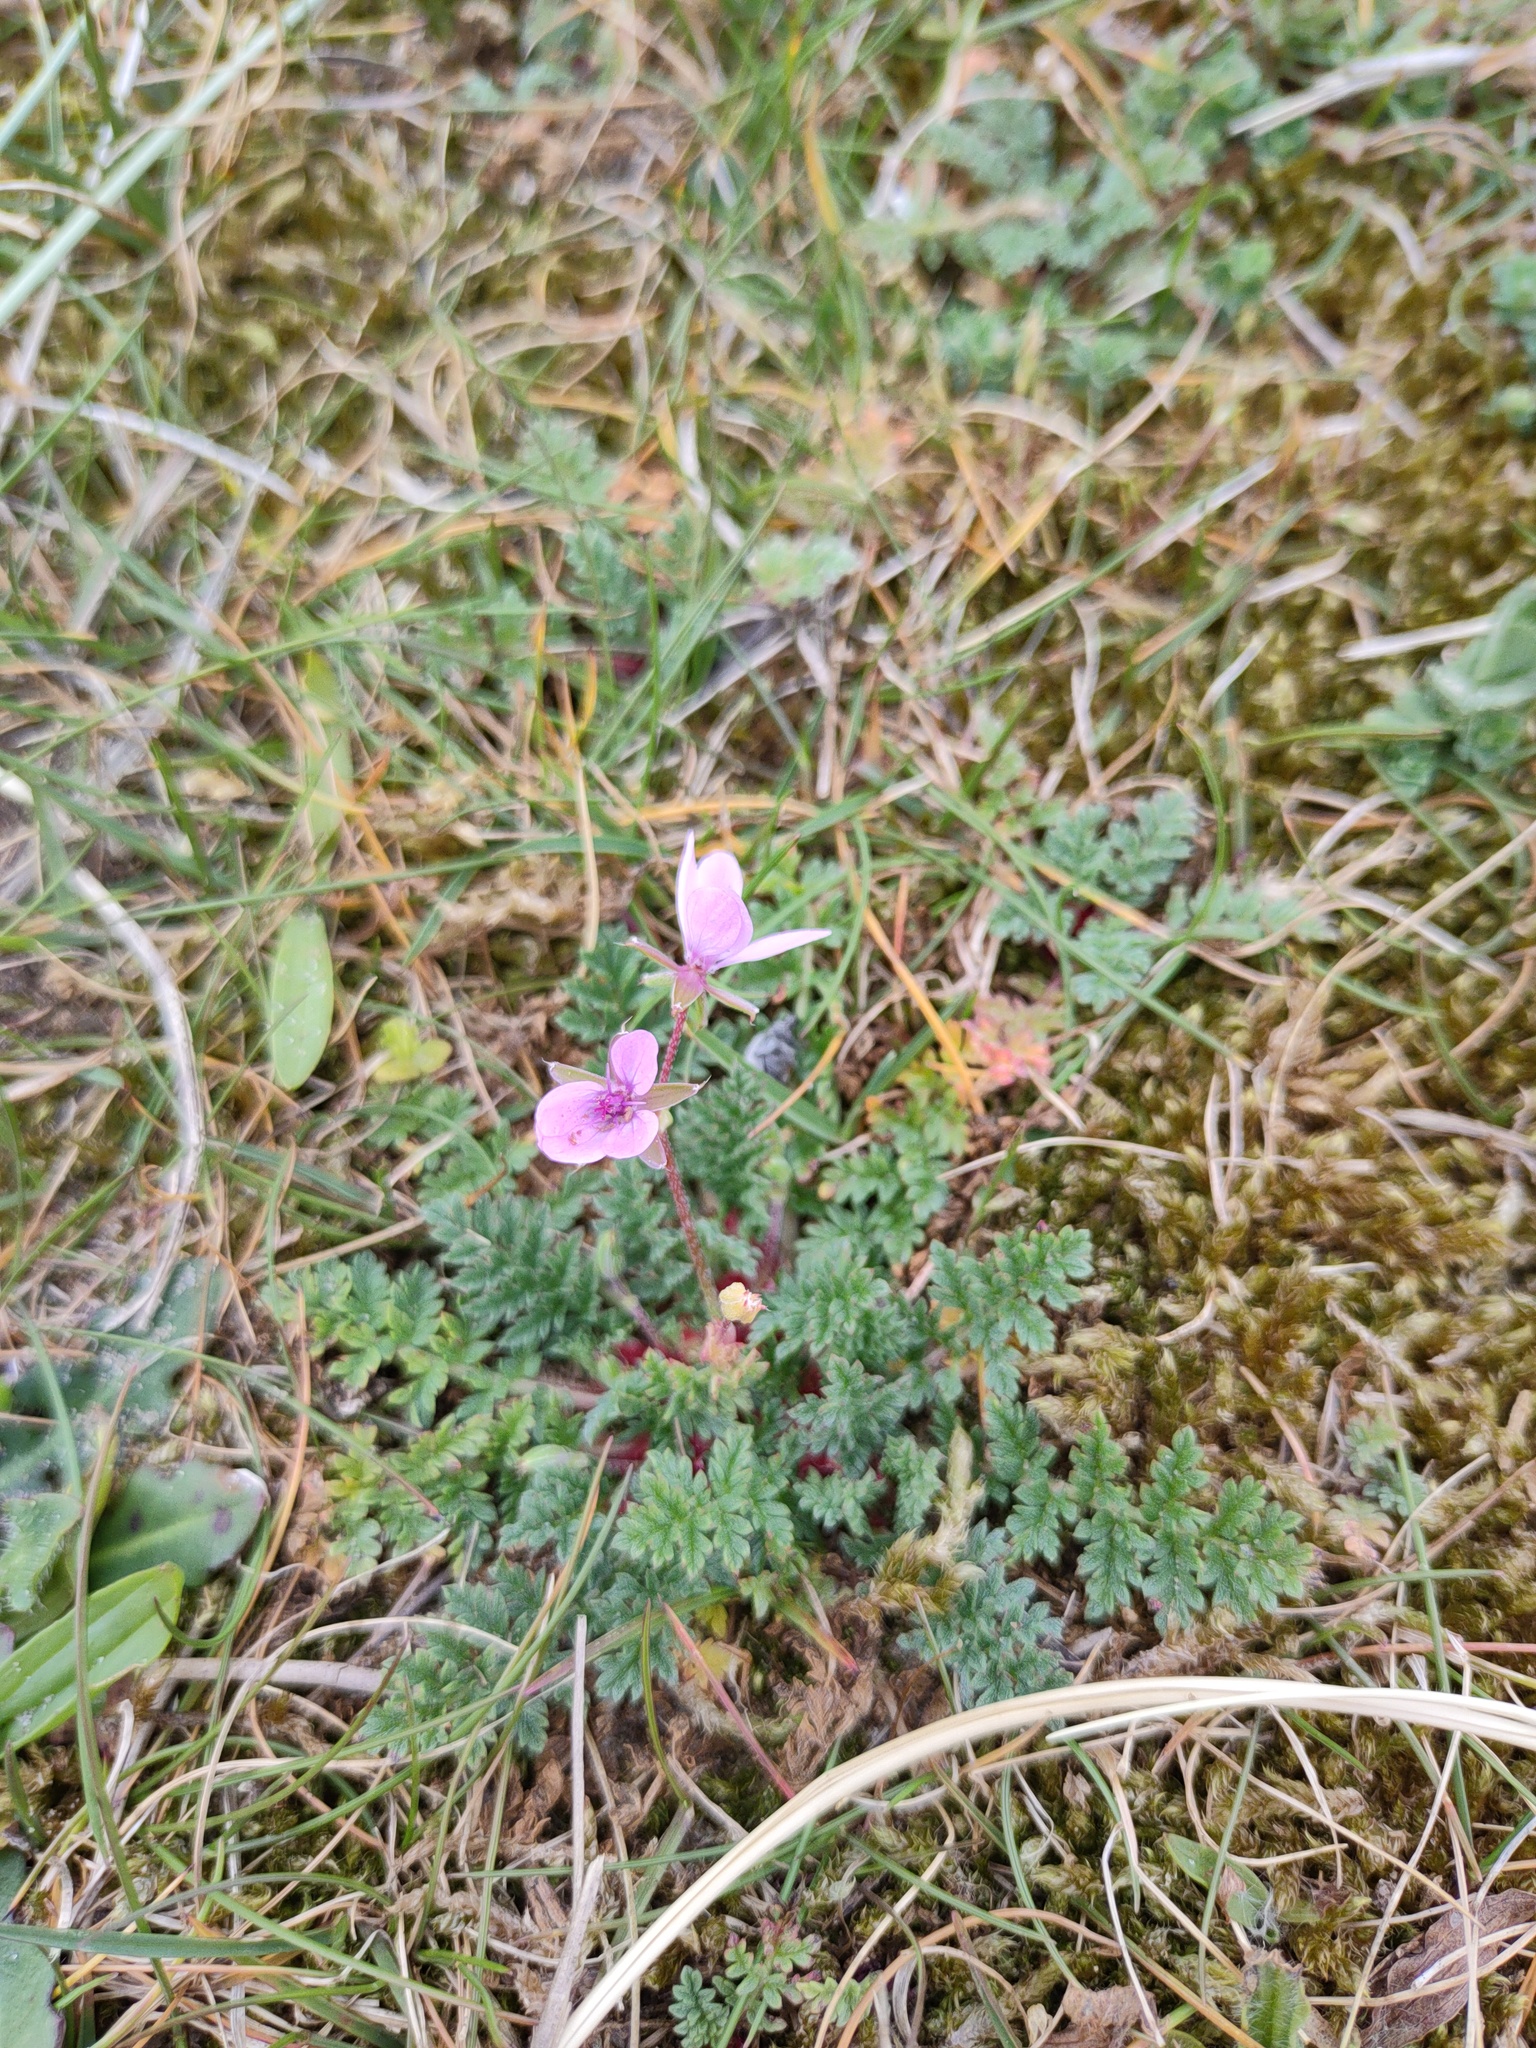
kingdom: Plantae
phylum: Tracheophyta
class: Magnoliopsida
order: Geraniales
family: Geraniaceae
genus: Erodium
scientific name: Erodium cicutarium
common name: Common stork's-bill
